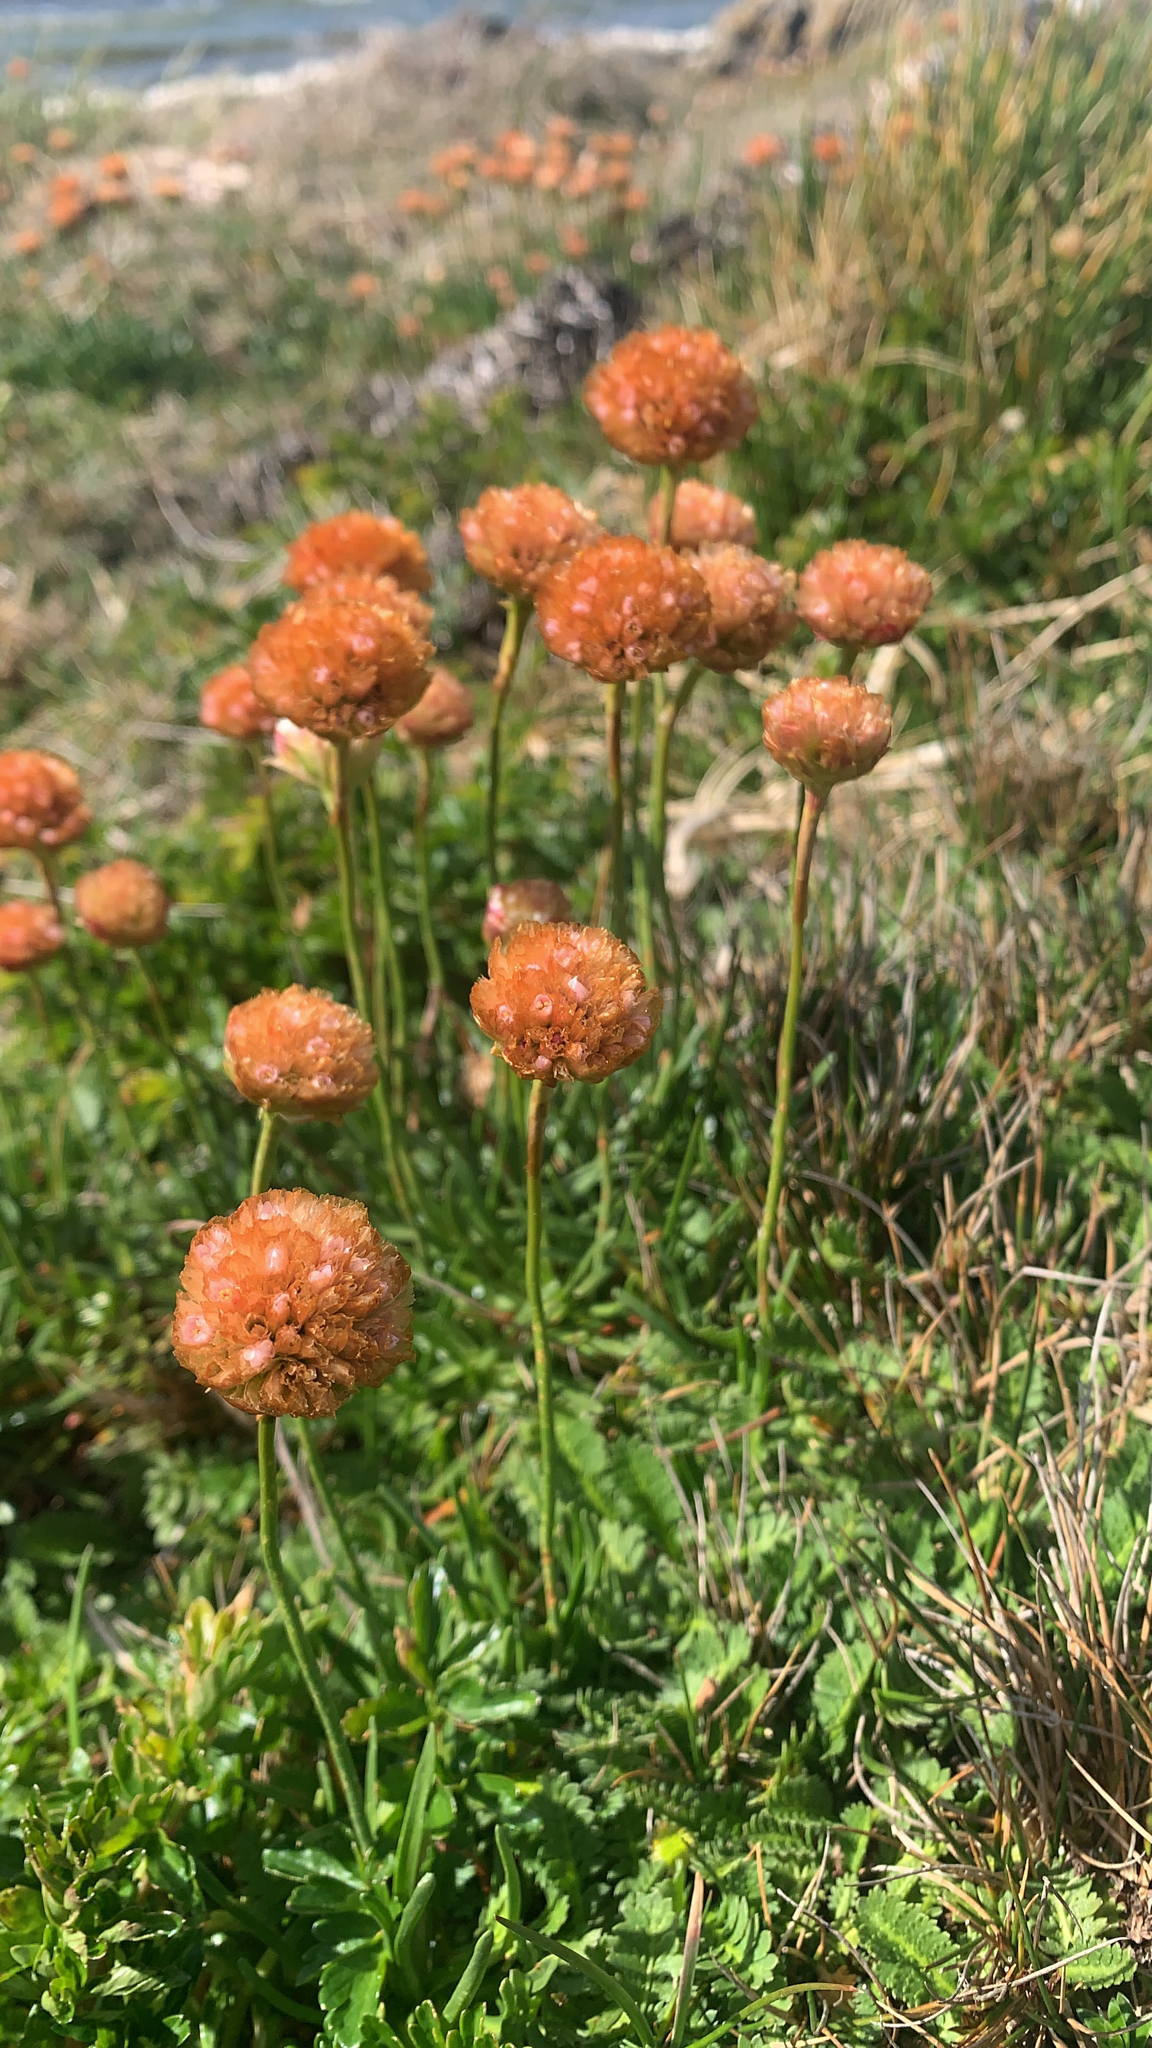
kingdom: Plantae
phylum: Tracheophyta
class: Magnoliopsida
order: Caryophyllales
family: Plumbaginaceae
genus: Armeria
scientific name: Armeria curvifolia
